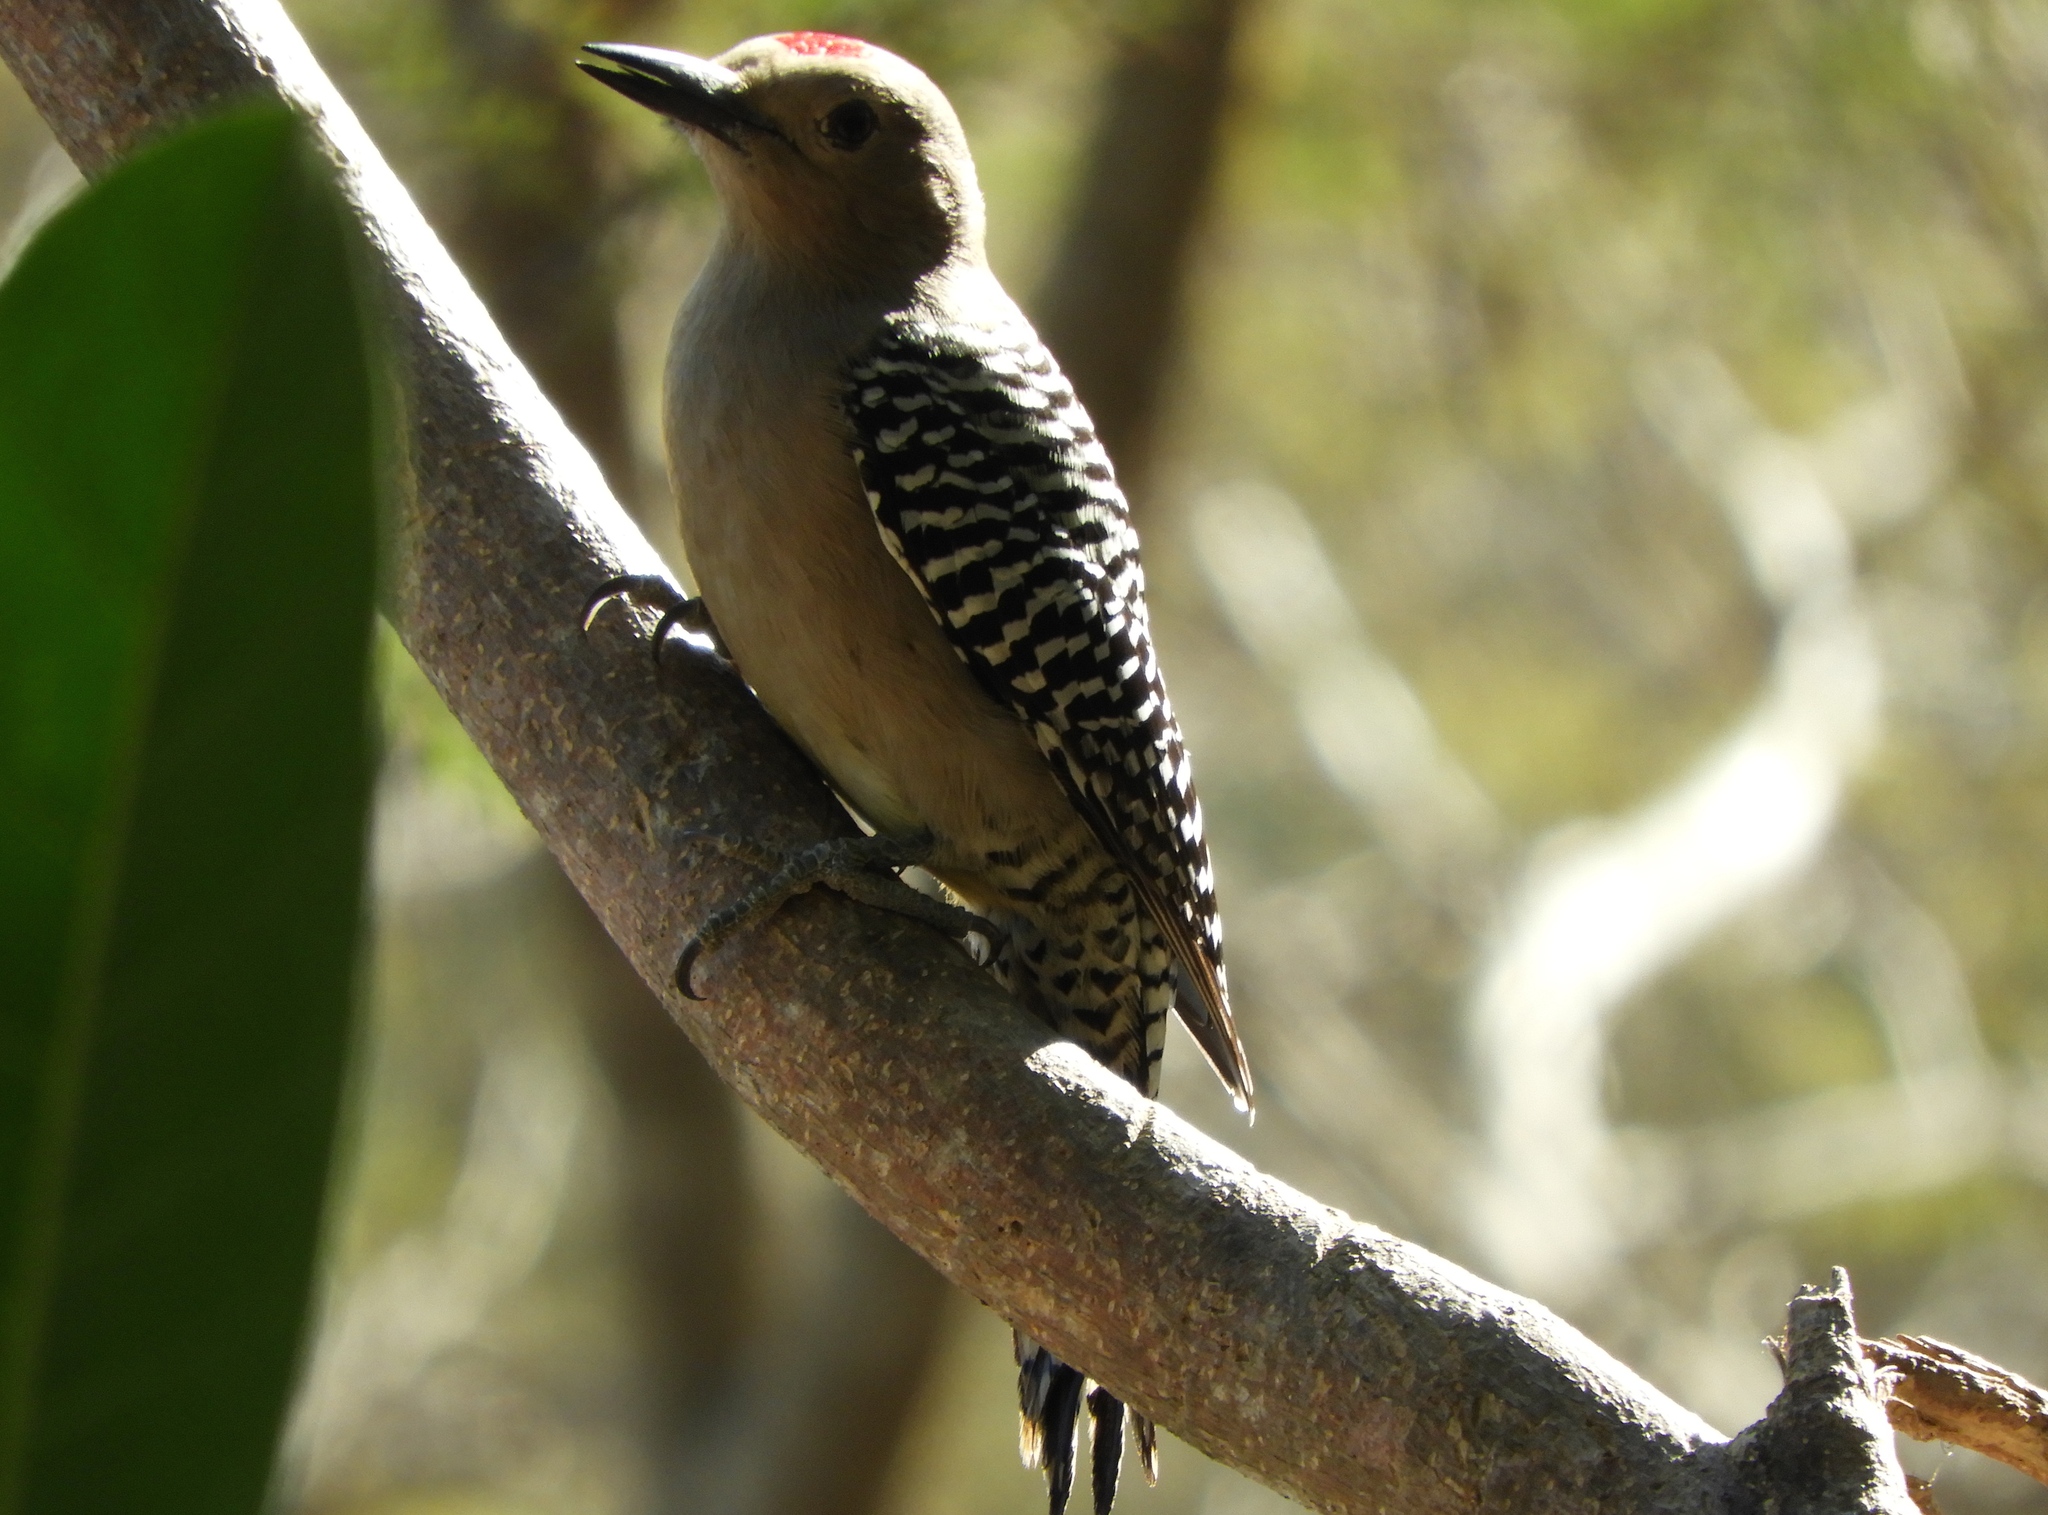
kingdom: Animalia
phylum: Chordata
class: Aves
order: Piciformes
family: Picidae
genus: Melanerpes
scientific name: Melanerpes uropygialis
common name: Gila woodpecker
